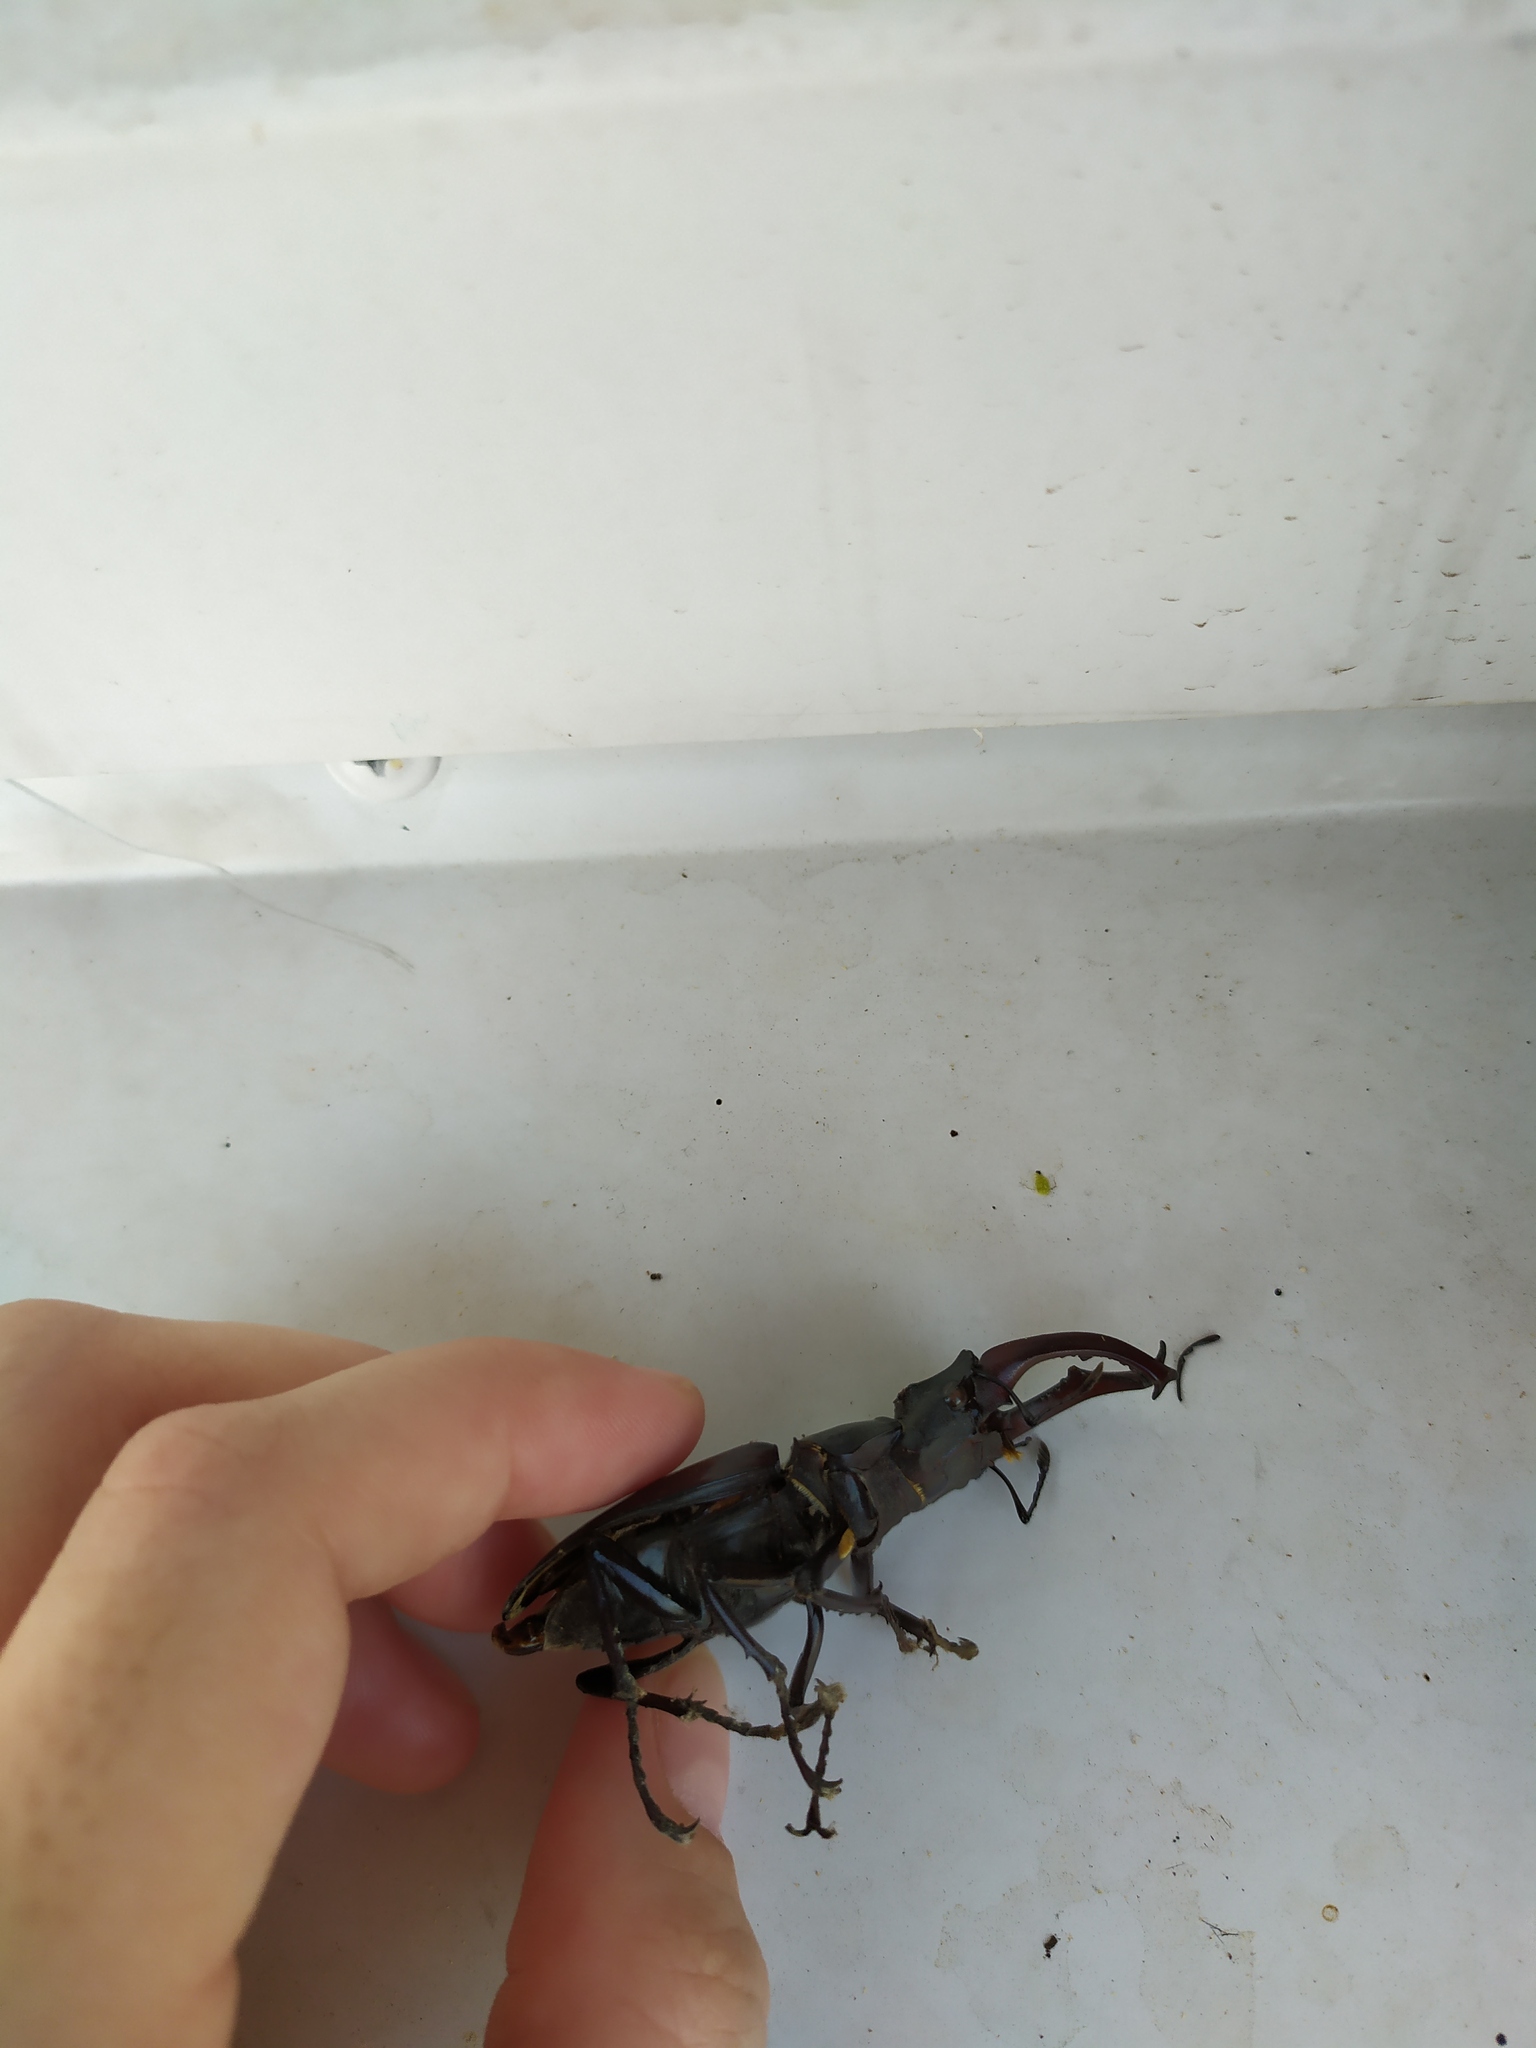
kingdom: Animalia
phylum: Arthropoda
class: Insecta
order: Coleoptera
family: Lucanidae
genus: Lucanus
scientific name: Lucanus cervus
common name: Stag beetle
